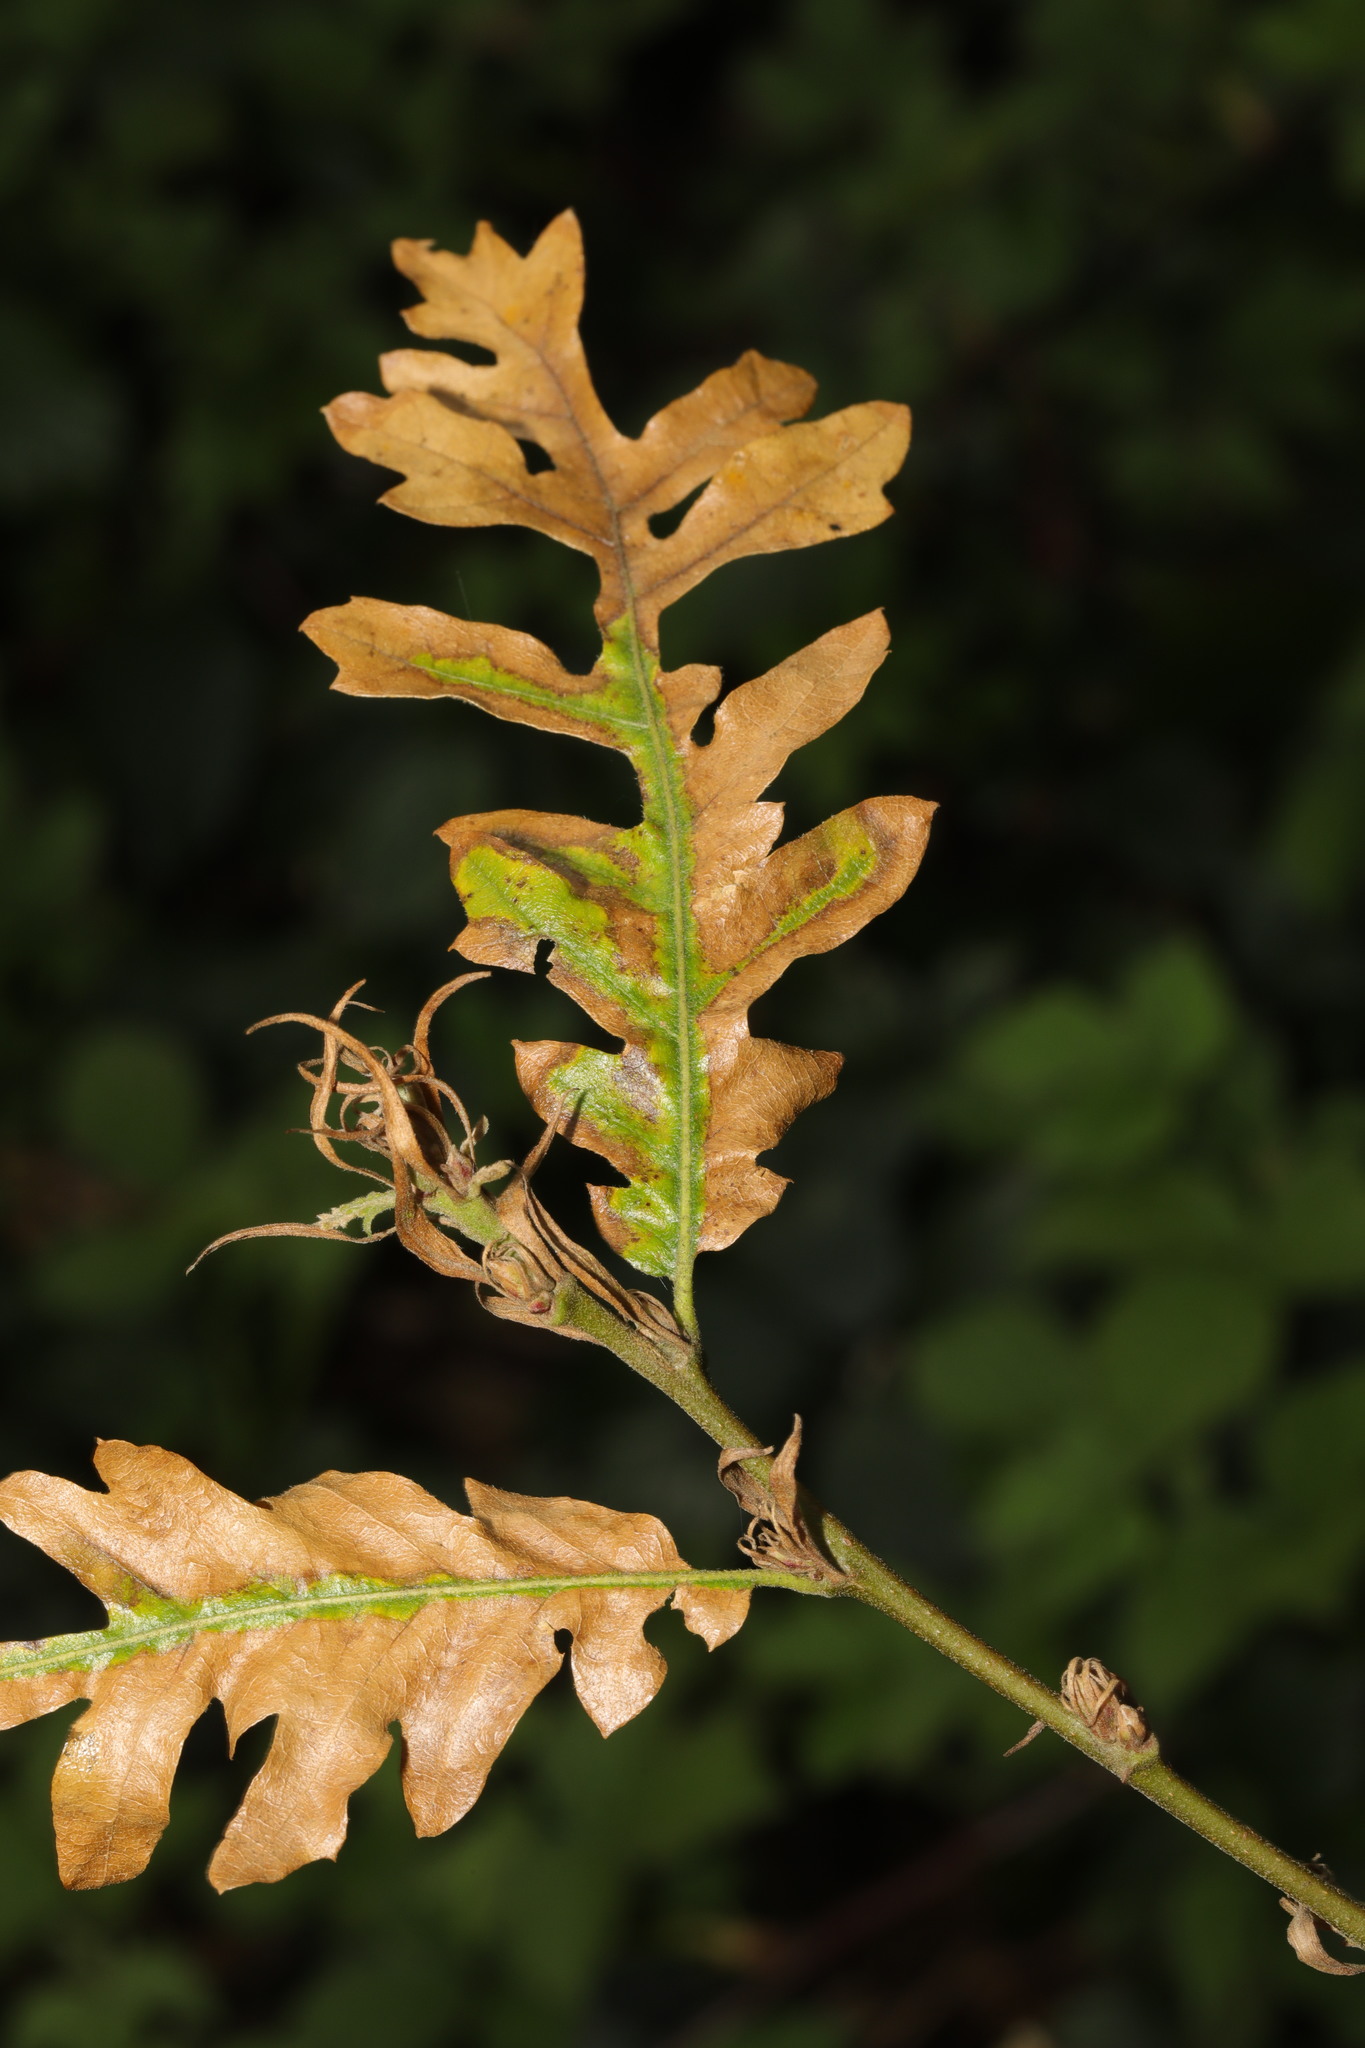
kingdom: Plantae
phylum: Tracheophyta
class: Magnoliopsida
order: Fagales
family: Fagaceae
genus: Quercus
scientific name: Quercus cerris
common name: Turkey oak
